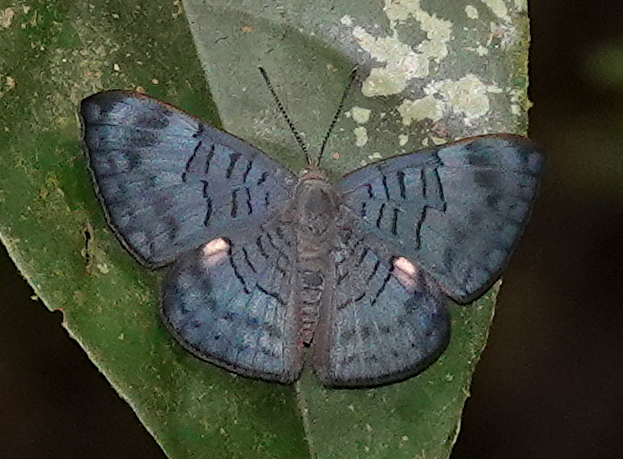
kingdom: Animalia
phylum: Arthropoda
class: Insecta
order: Lepidoptera
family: Lycaenidae
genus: Emesis
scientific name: Emesis lucinda
